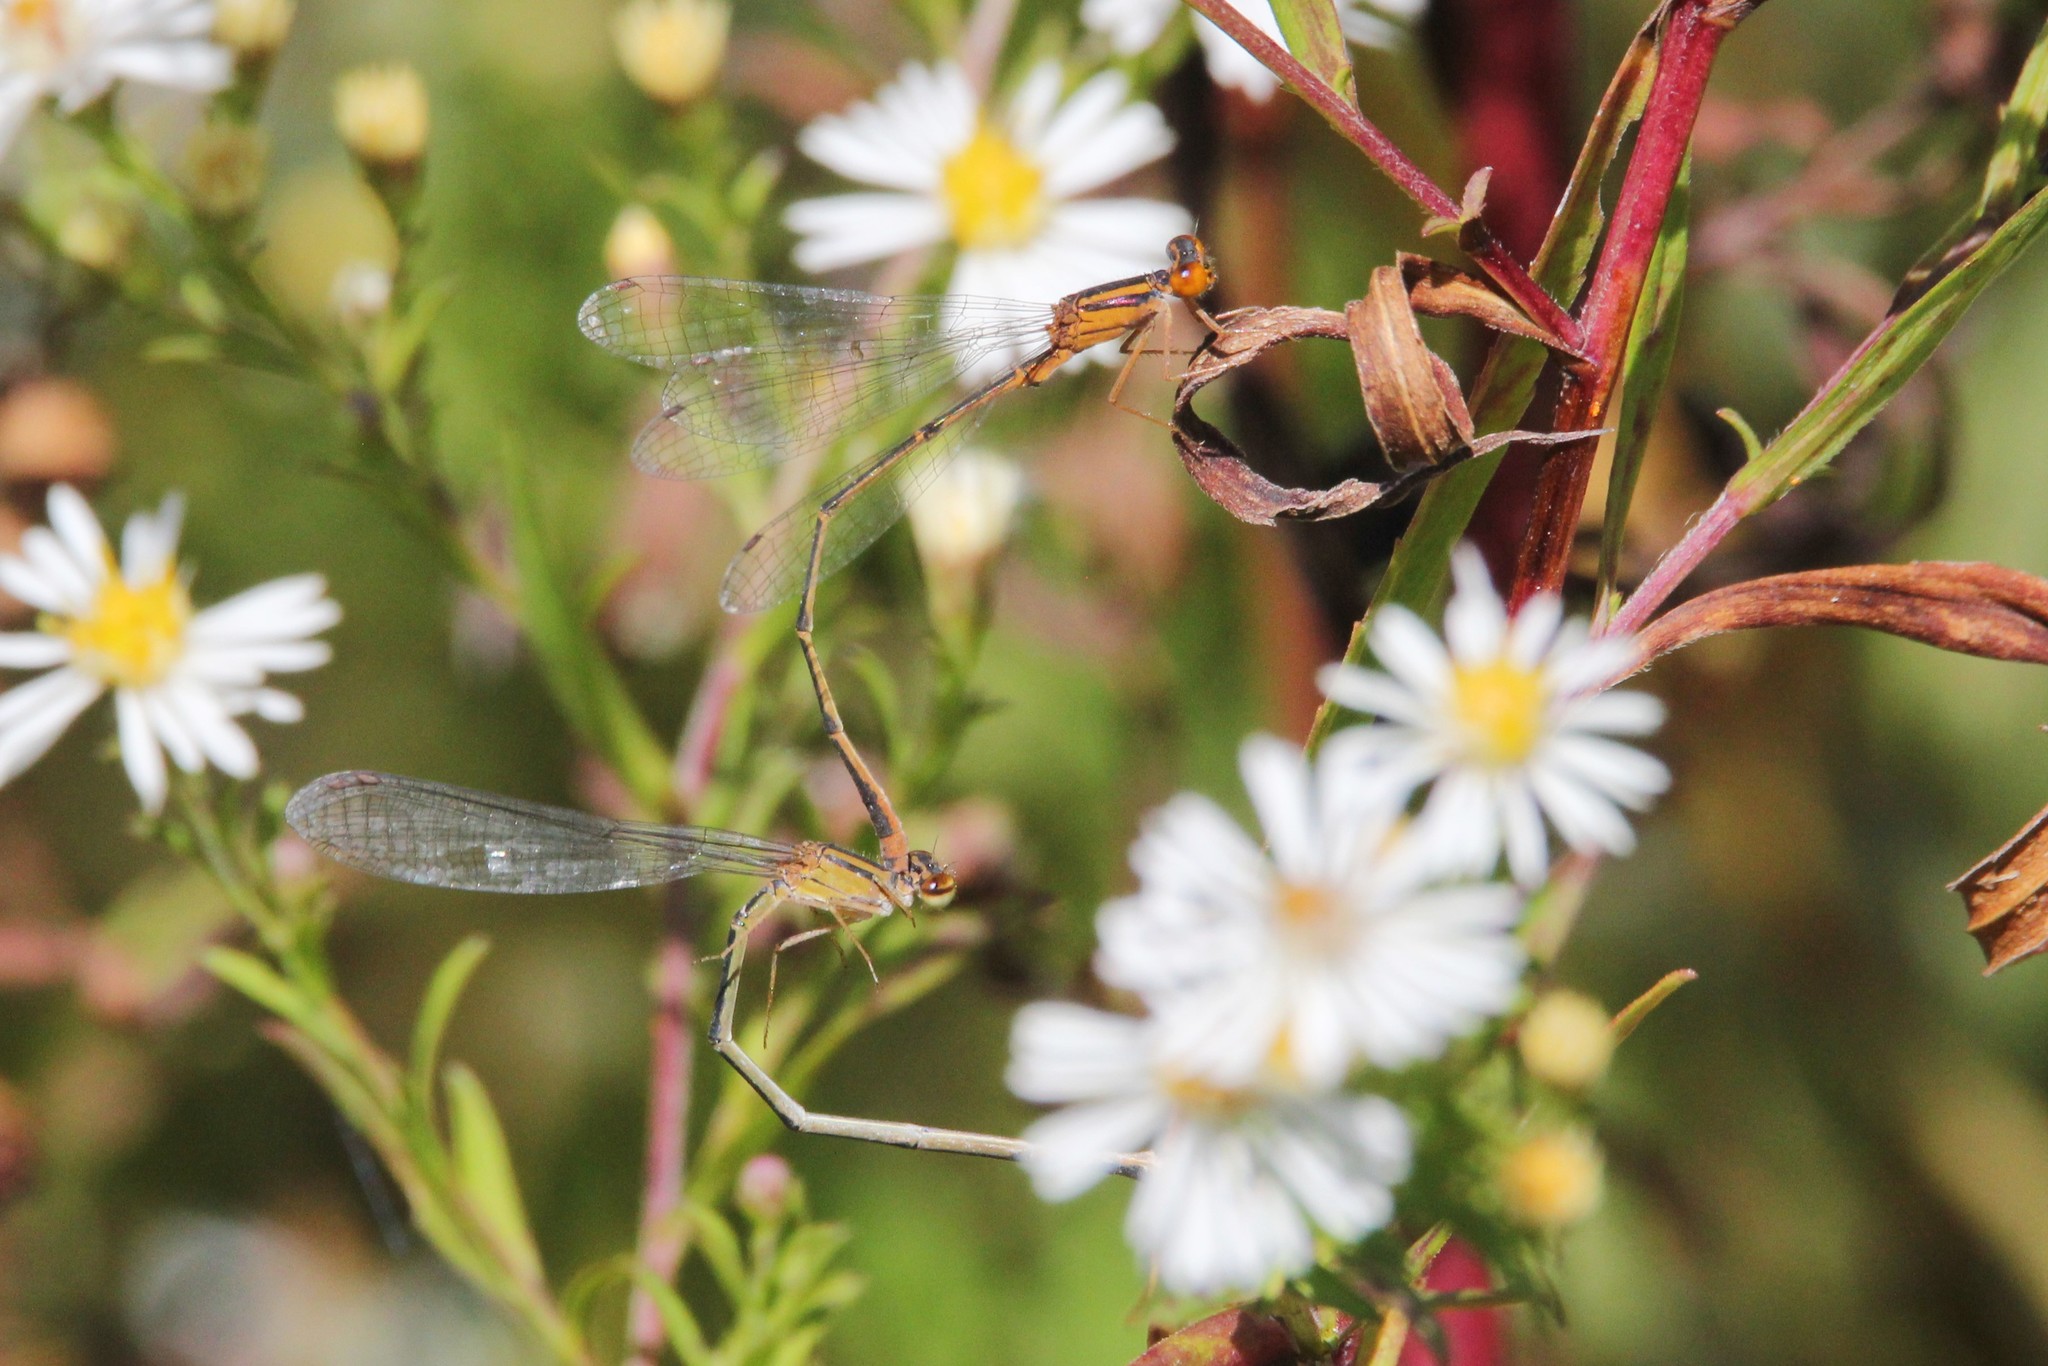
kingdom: Animalia
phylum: Arthropoda
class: Insecta
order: Odonata
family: Coenagrionidae
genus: Enallagma
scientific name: Enallagma signatum
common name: Orange bluet
